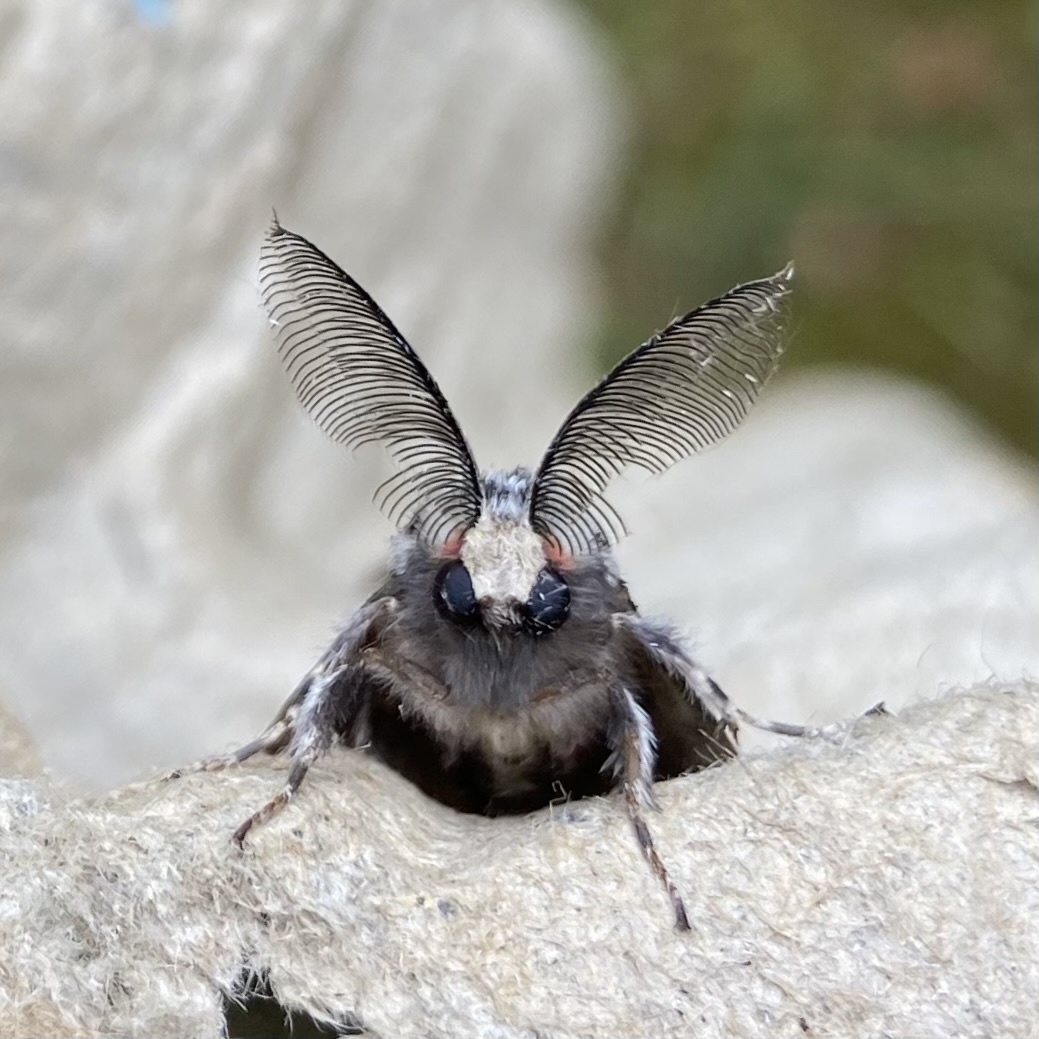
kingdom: Animalia
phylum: Arthropoda
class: Insecta
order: Lepidoptera
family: Erebidae
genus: Lymantria
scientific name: Lymantria monacha
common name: Black arches
